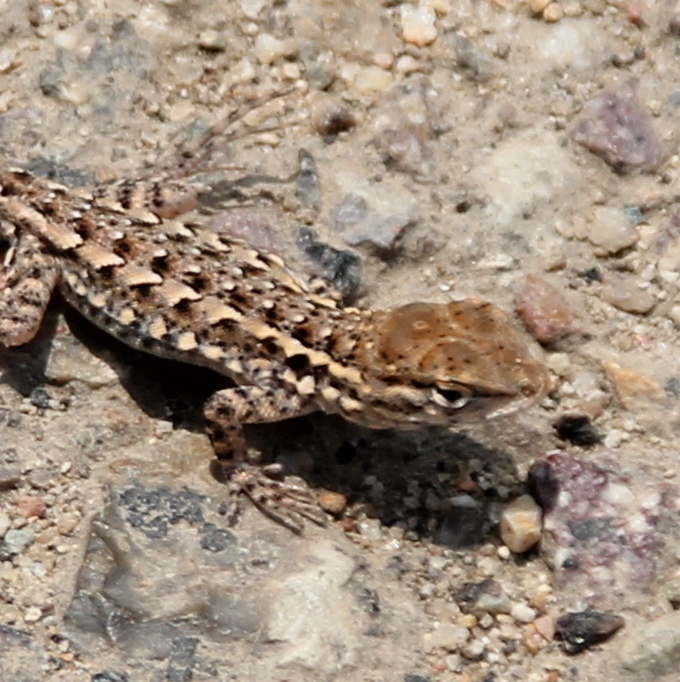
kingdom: Animalia
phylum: Chordata
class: Squamata
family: Phrynosomatidae
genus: Uta
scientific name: Uta stansburiana
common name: Side-blotched lizard
